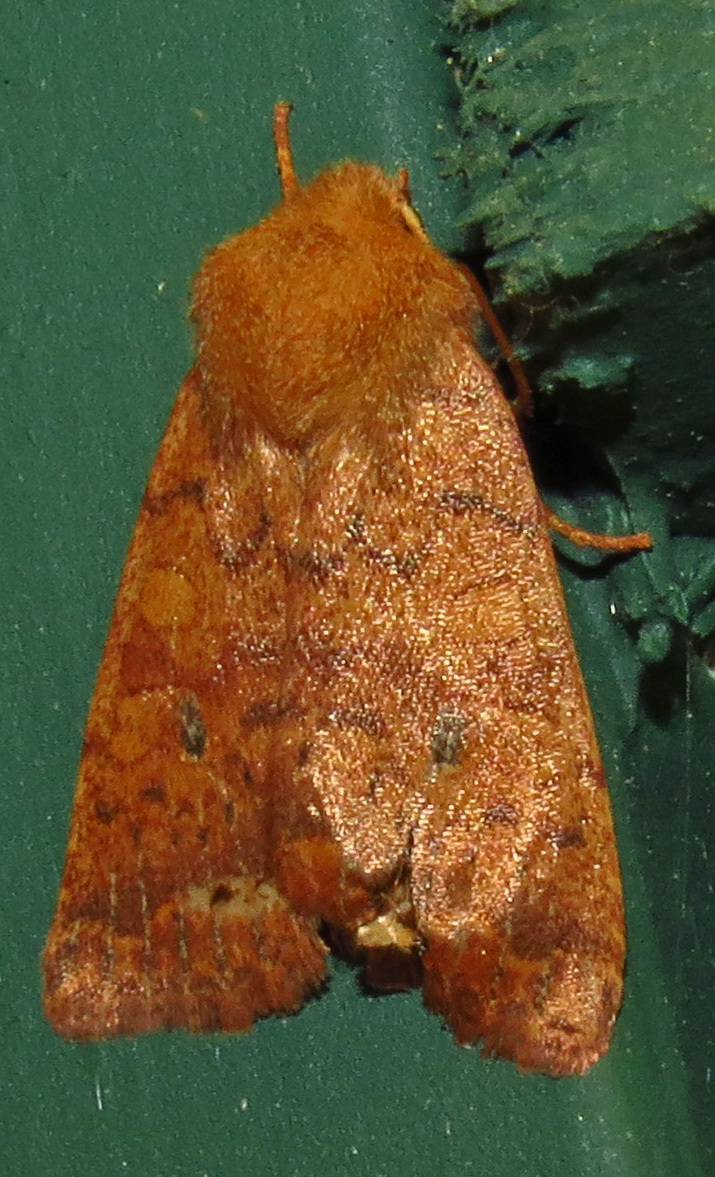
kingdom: Animalia
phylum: Arthropoda
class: Insecta
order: Lepidoptera
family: Noctuidae
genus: Agrochola
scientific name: Agrochola bicolorago
